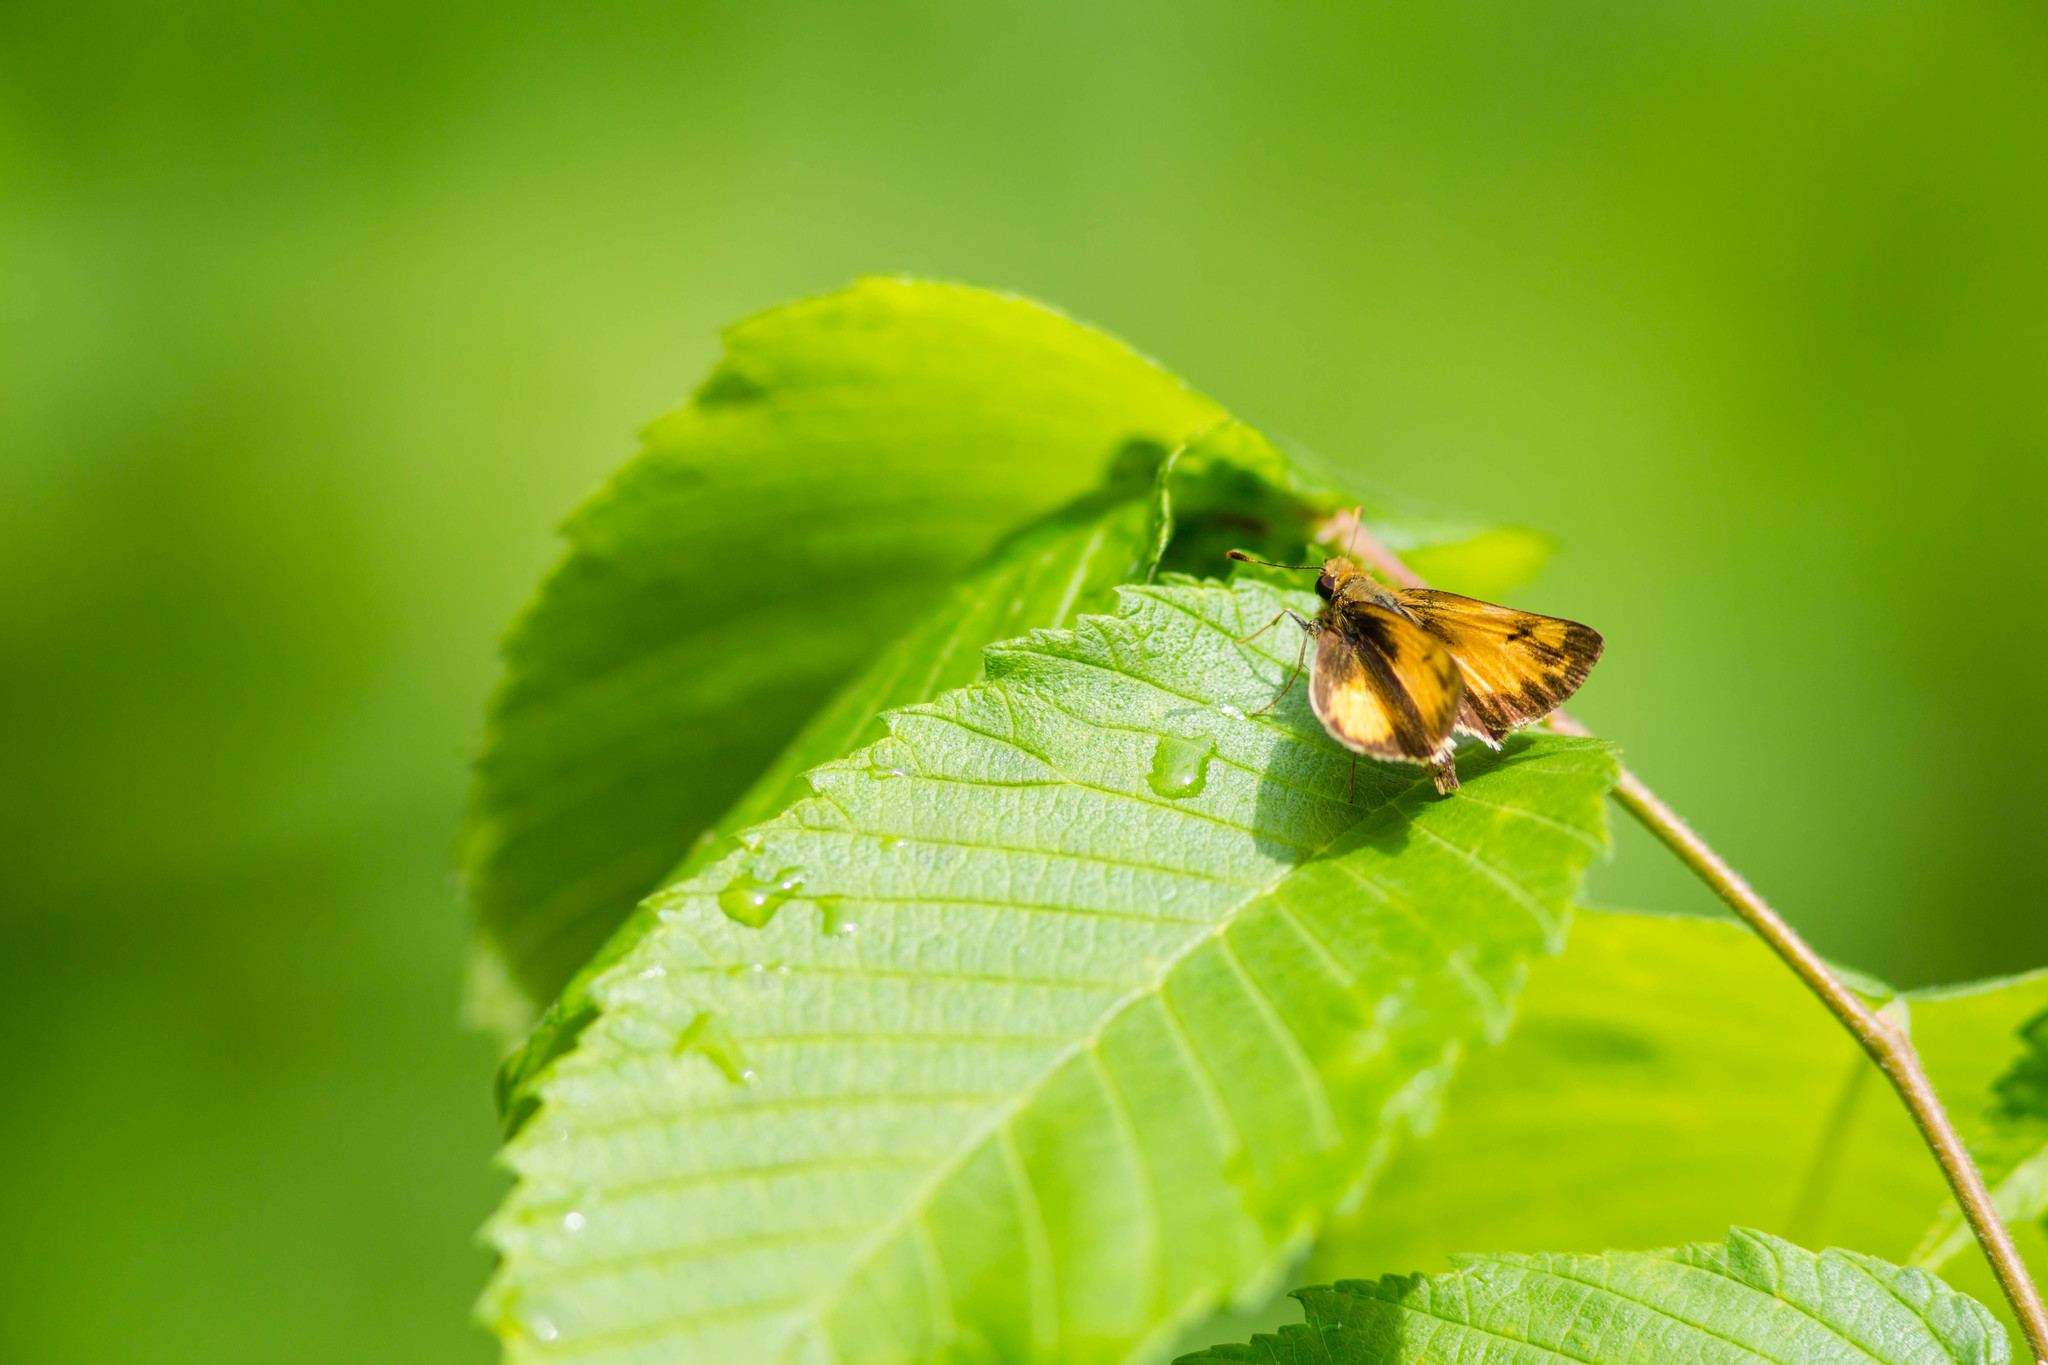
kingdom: Animalia
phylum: Arthropoda
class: Insecta
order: Lepidoptera
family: Hesperiidae
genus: Lon
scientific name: Lon zabulon
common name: Zabulon skipper
